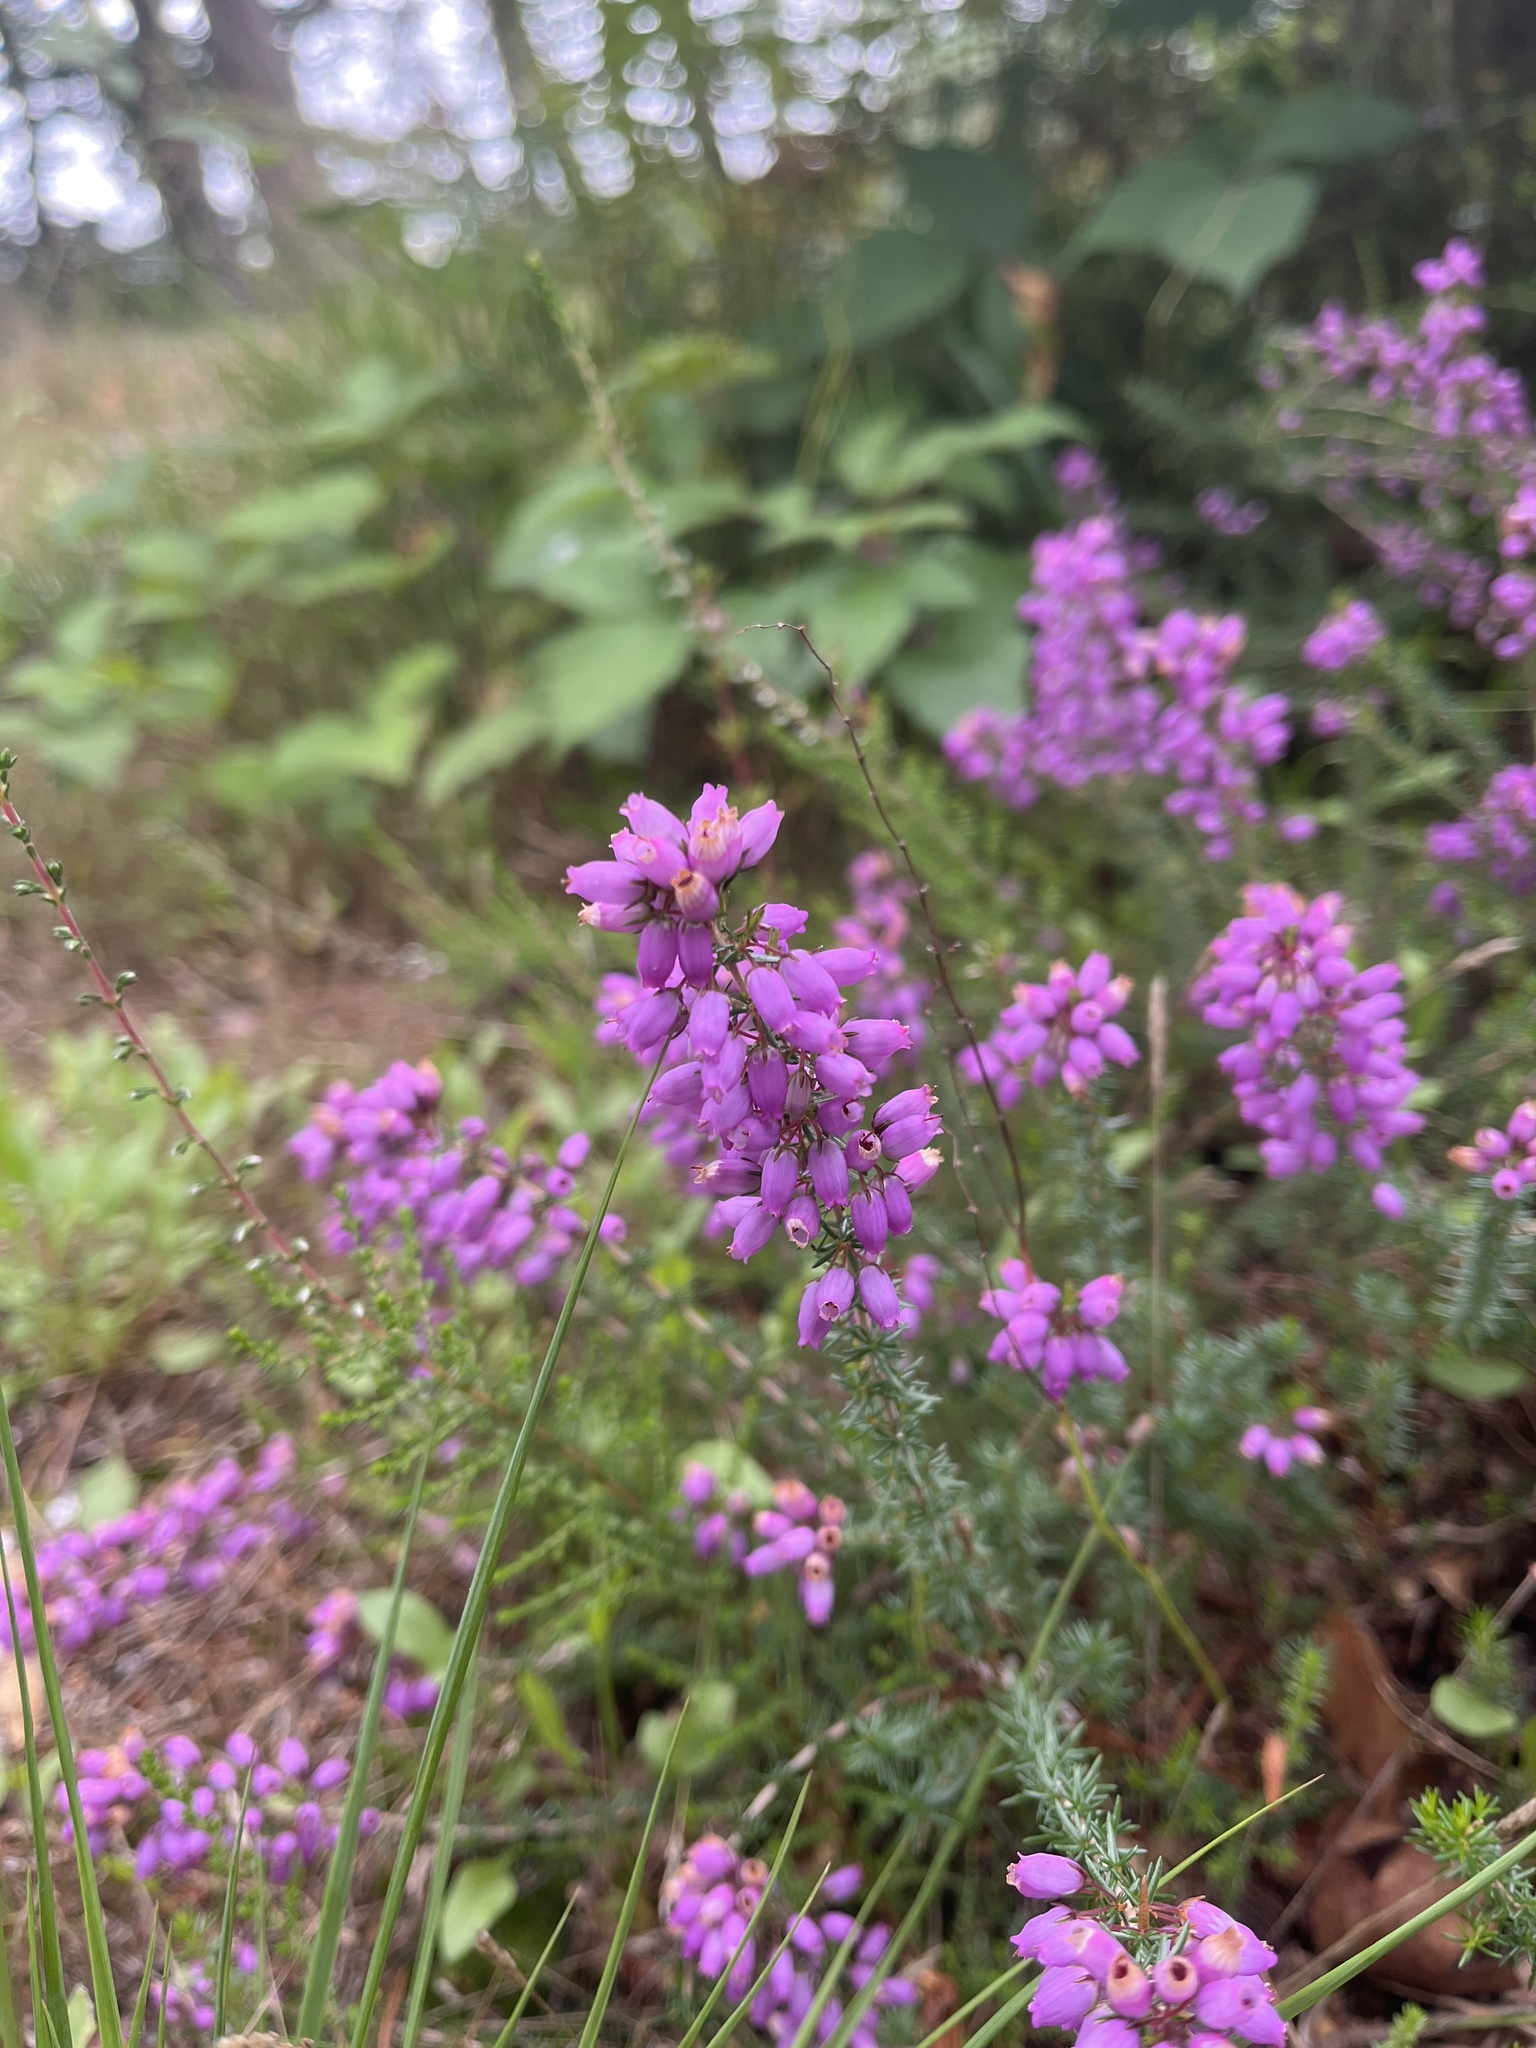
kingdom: Plantae
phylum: Tracheophyta
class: Magnoliopsida
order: Ericales
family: Ericaceae
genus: Erica
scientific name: Erica cinerea
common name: Bell heather
